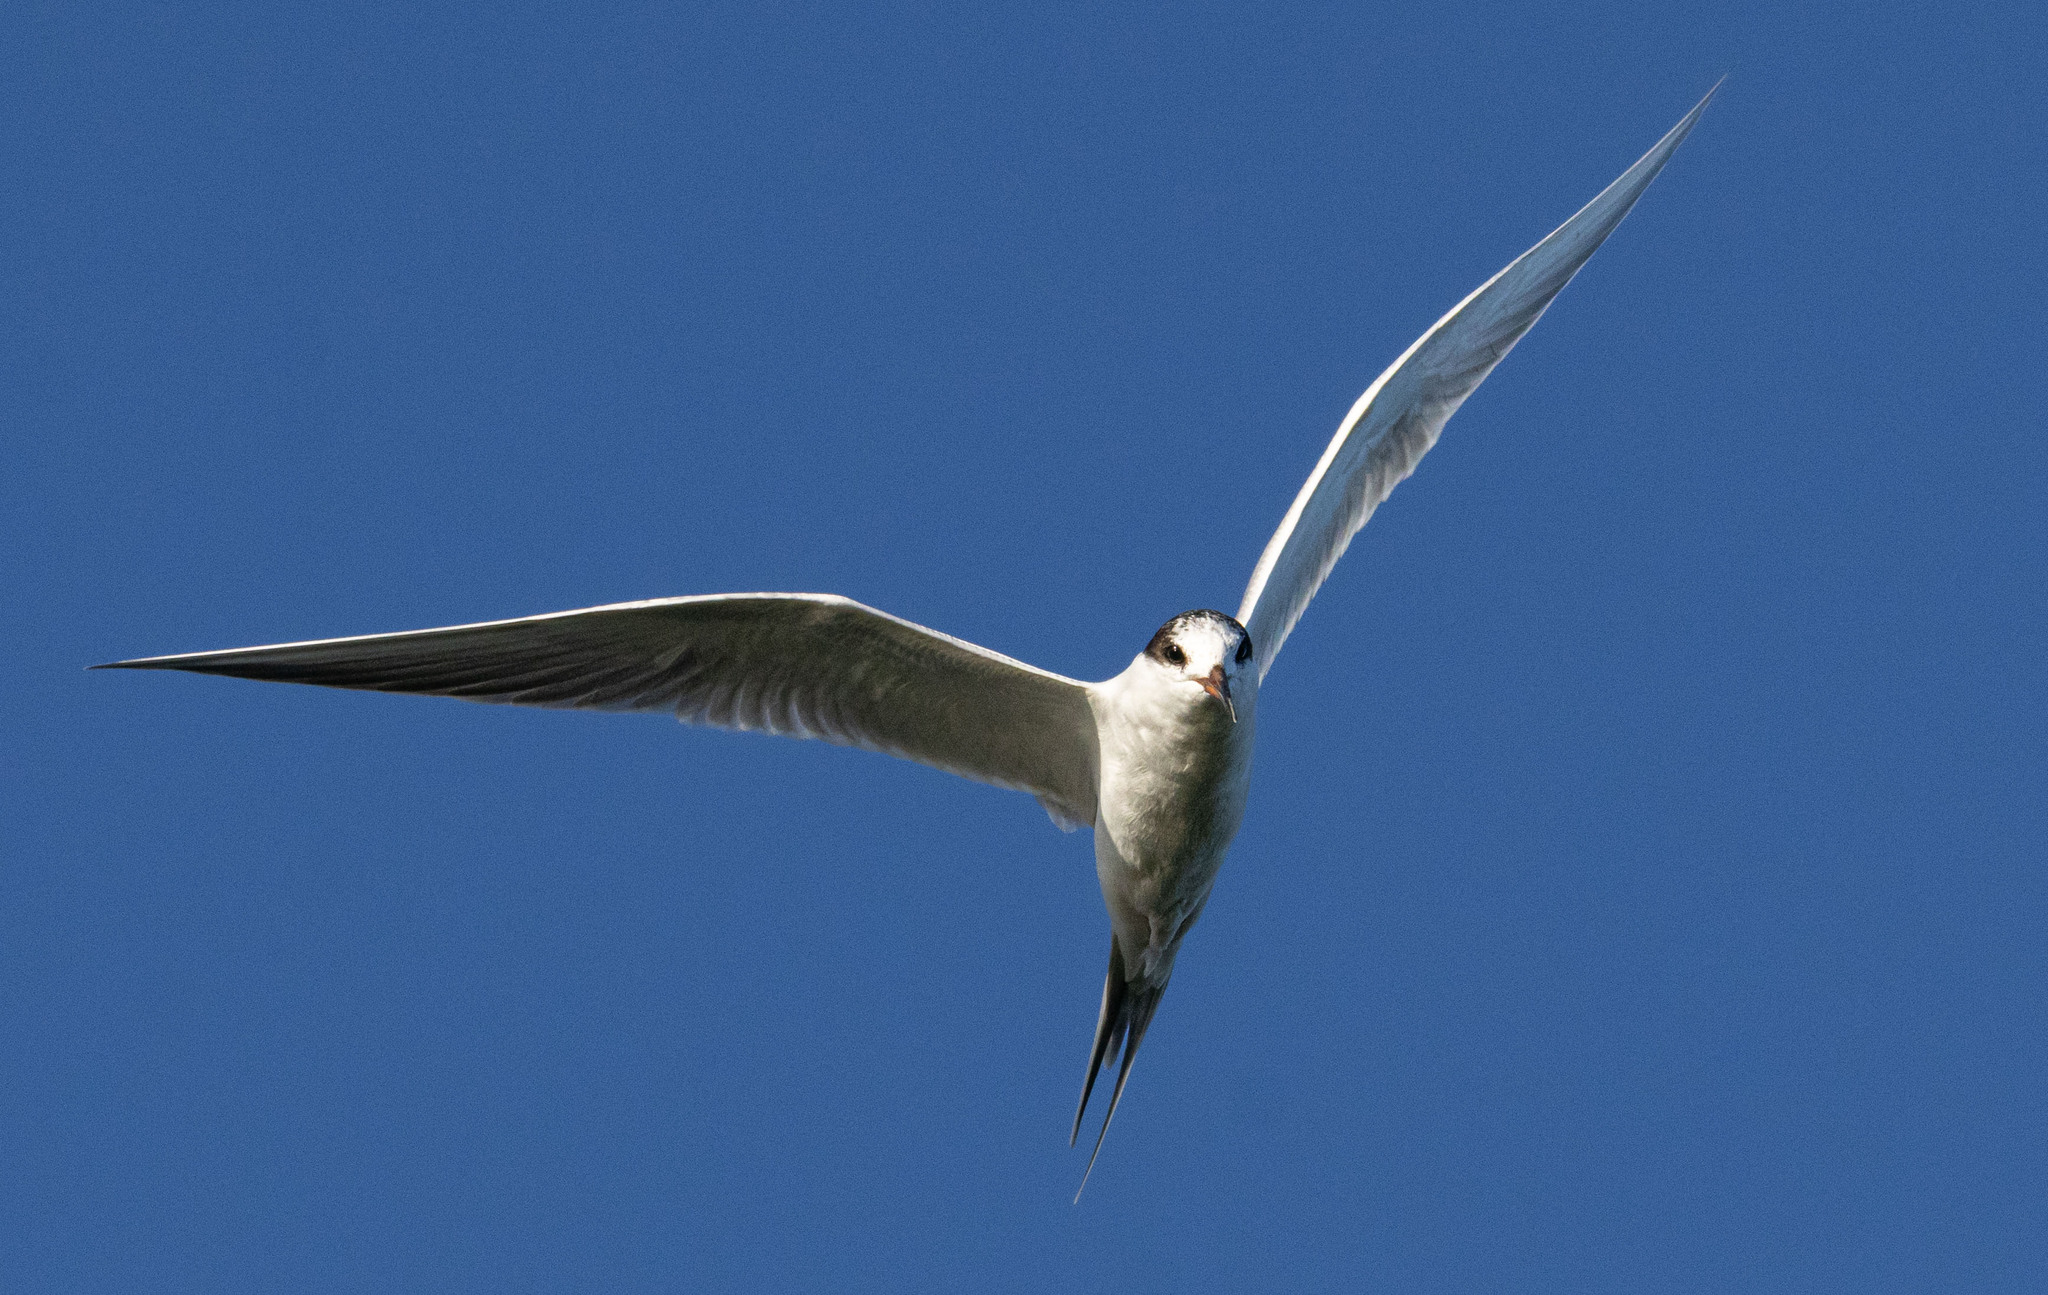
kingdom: Animalia
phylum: Chordata
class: Aves
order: Charadriiformes
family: Laridae
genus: Sterna
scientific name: Sterna forsteri
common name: Forster's tern
